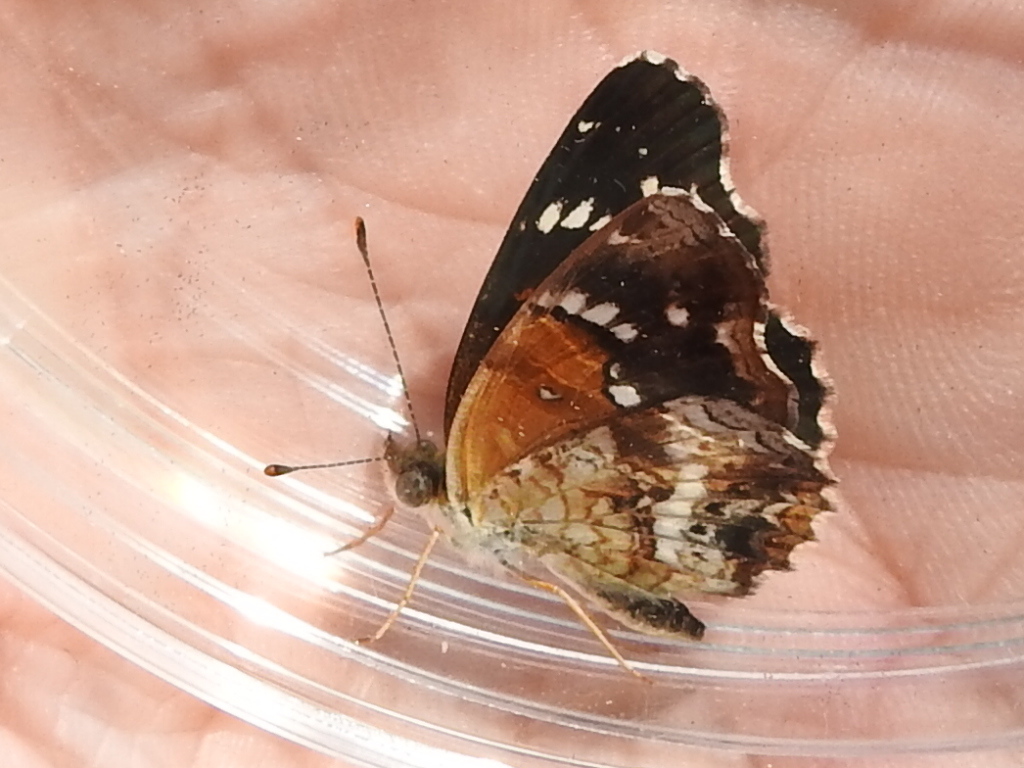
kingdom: Animalia
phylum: Arthropoda
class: Insecta
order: Lepidoptera
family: Nymphalidae
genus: Anthanassa
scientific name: Anthanassa texana
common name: Texan crescent
